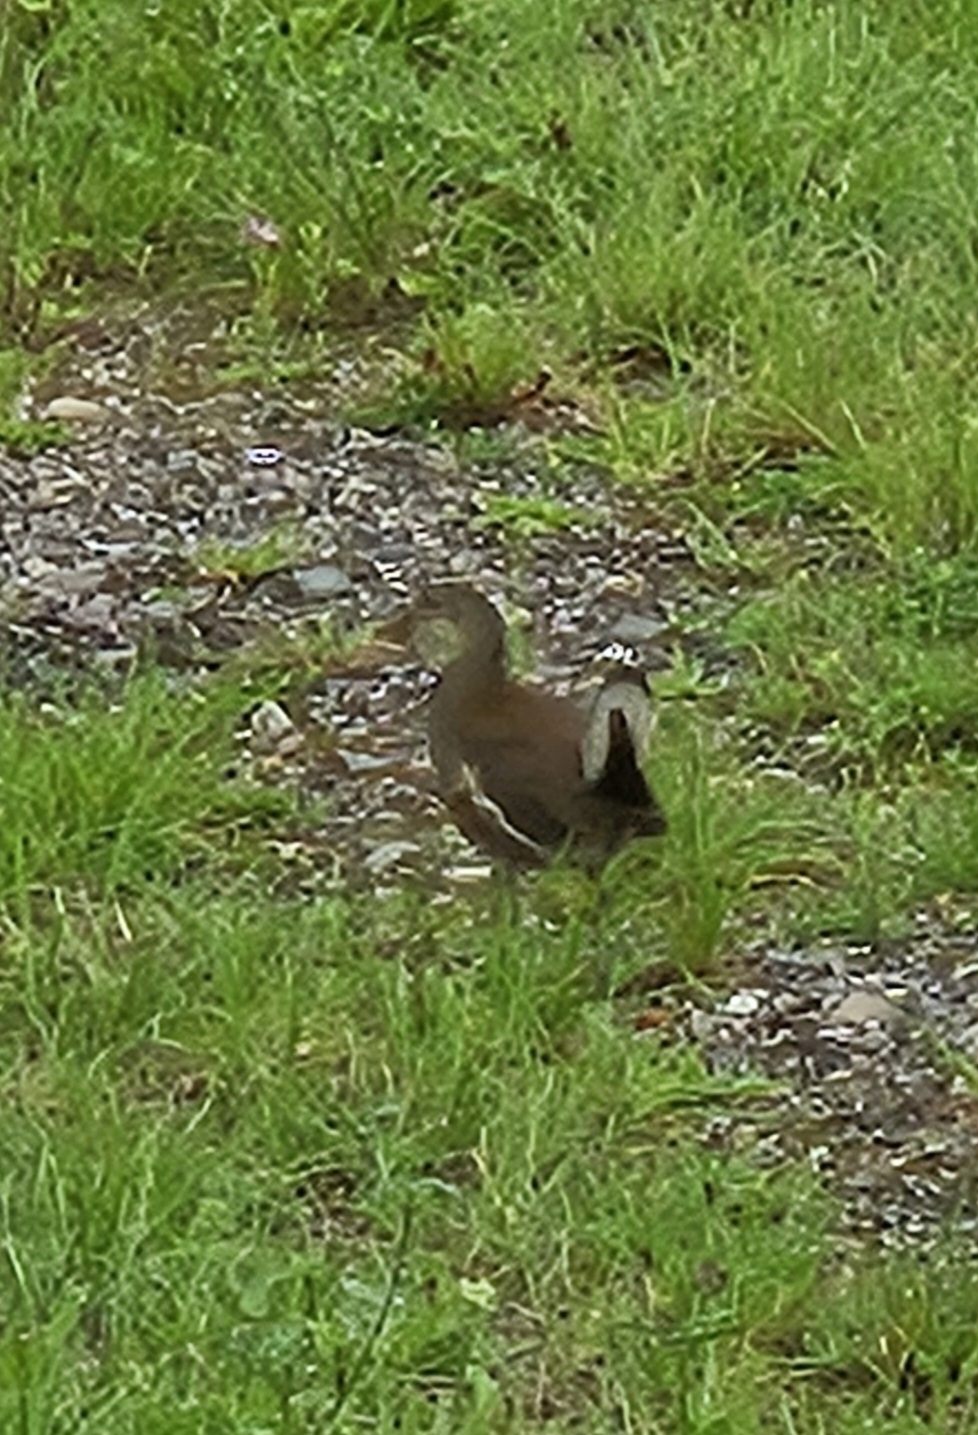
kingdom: Animalia
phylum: Chordata
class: Aves
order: Gruiformes
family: Rallidae
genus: Gallinula
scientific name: Gallinula chloropus
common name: Common moorhen
